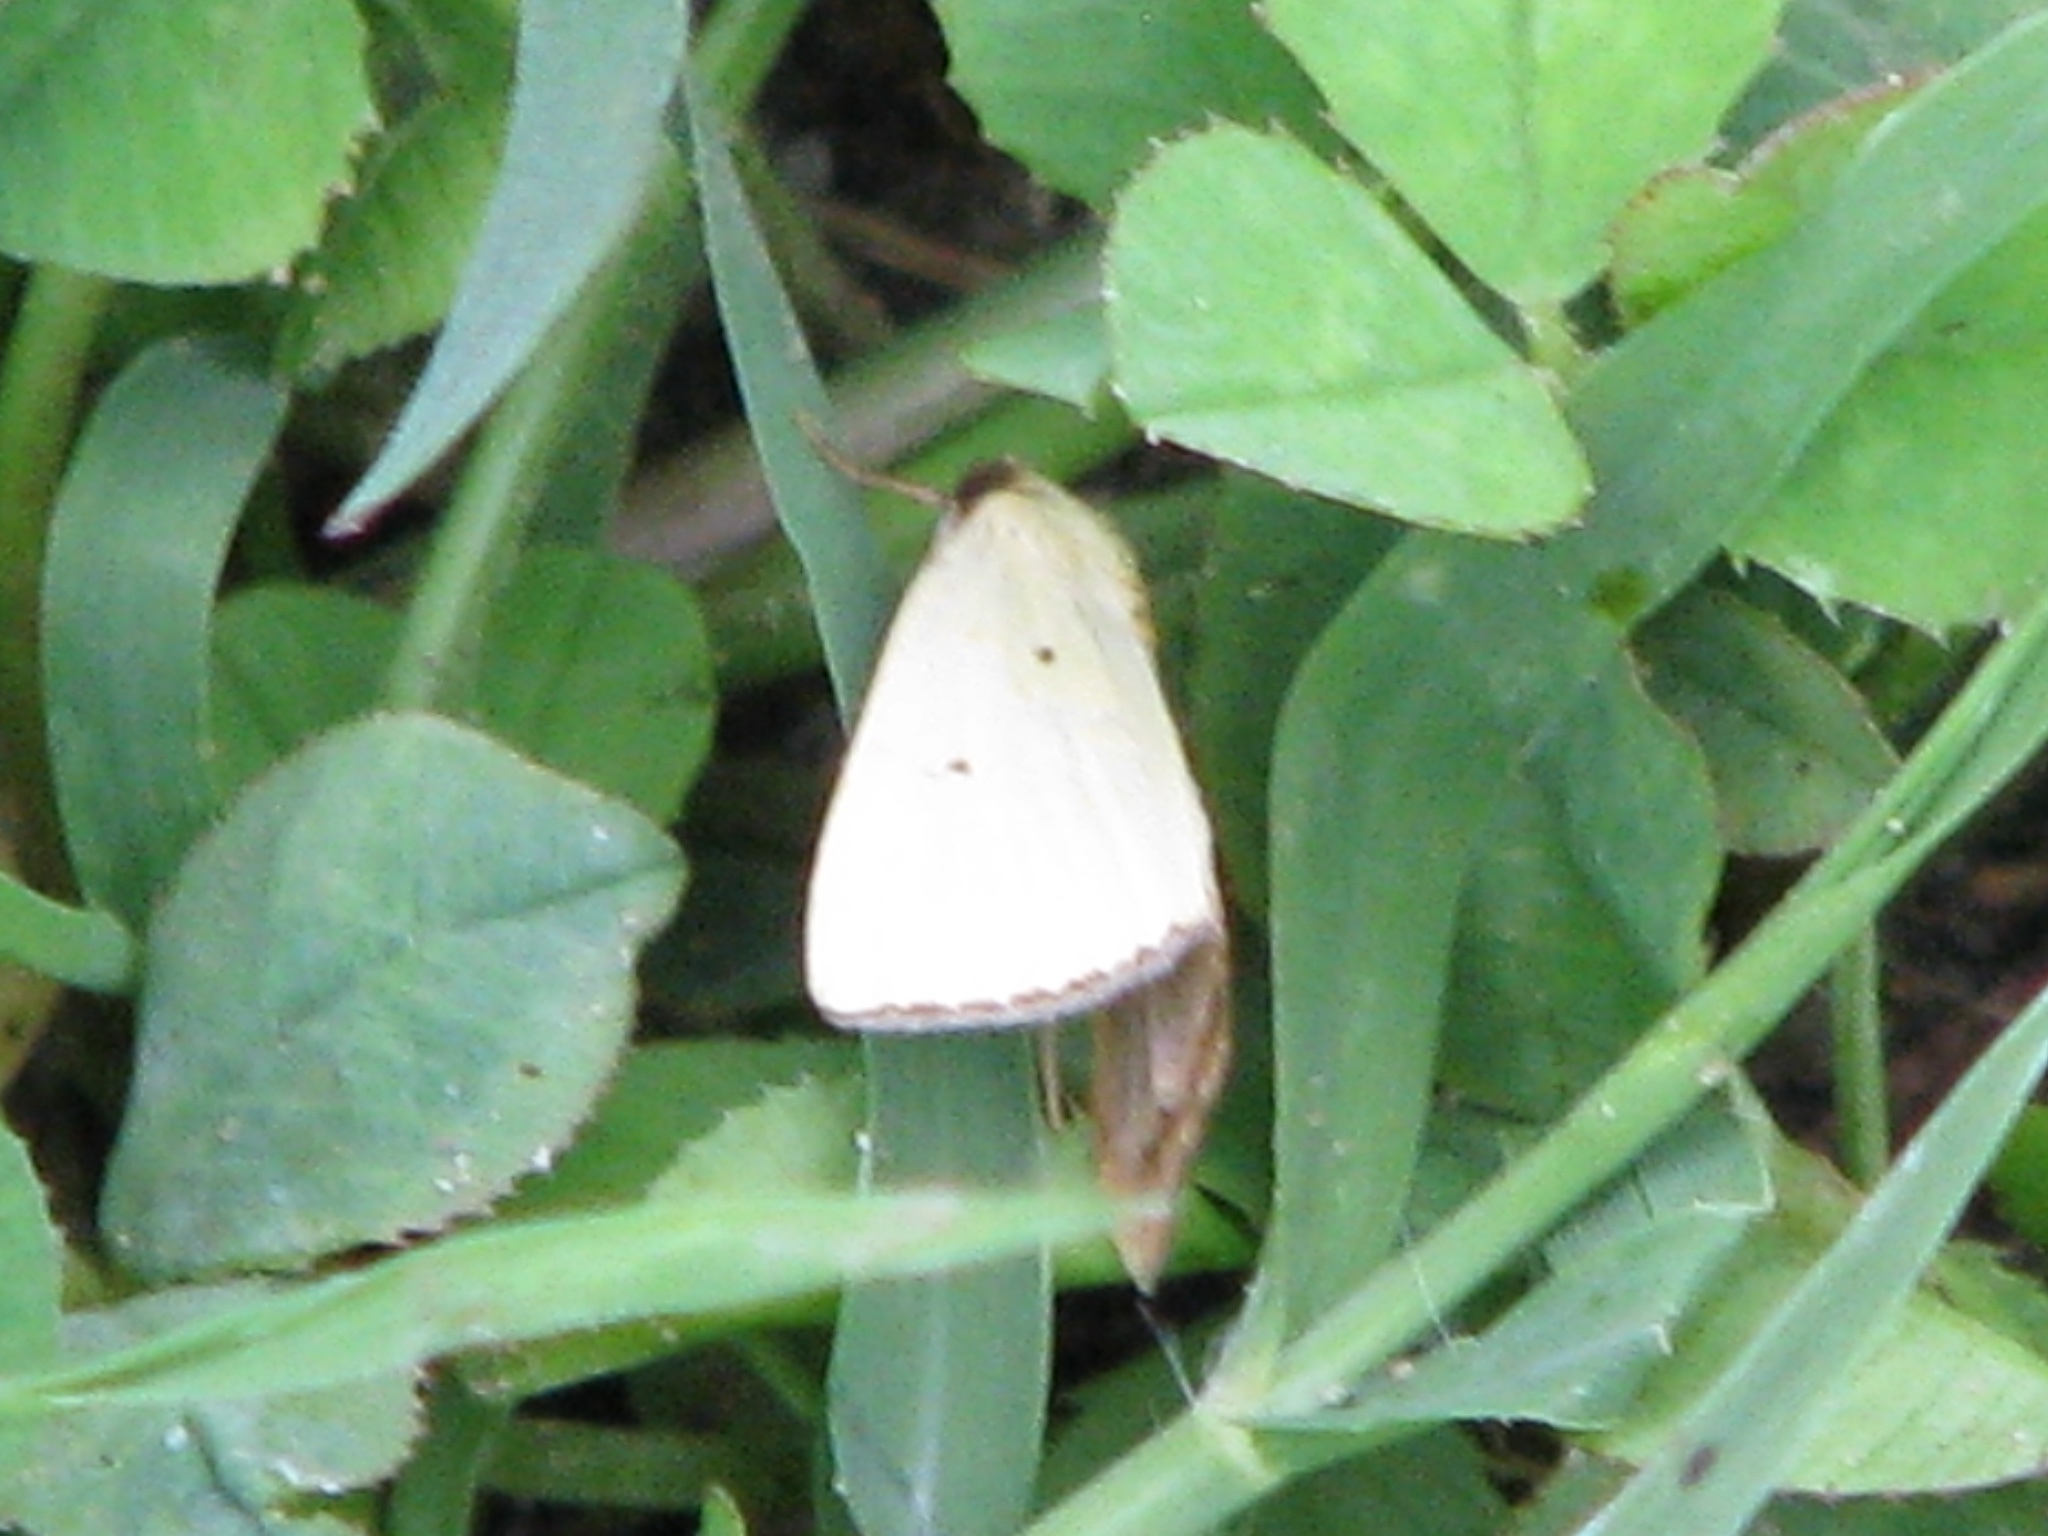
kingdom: Animalia
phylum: Arthropoda
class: Insecta
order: Lepidoptera
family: Noctuidae
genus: Marimatha
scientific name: Marimatha nigrofimbria
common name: Black-bordered lemon moth
